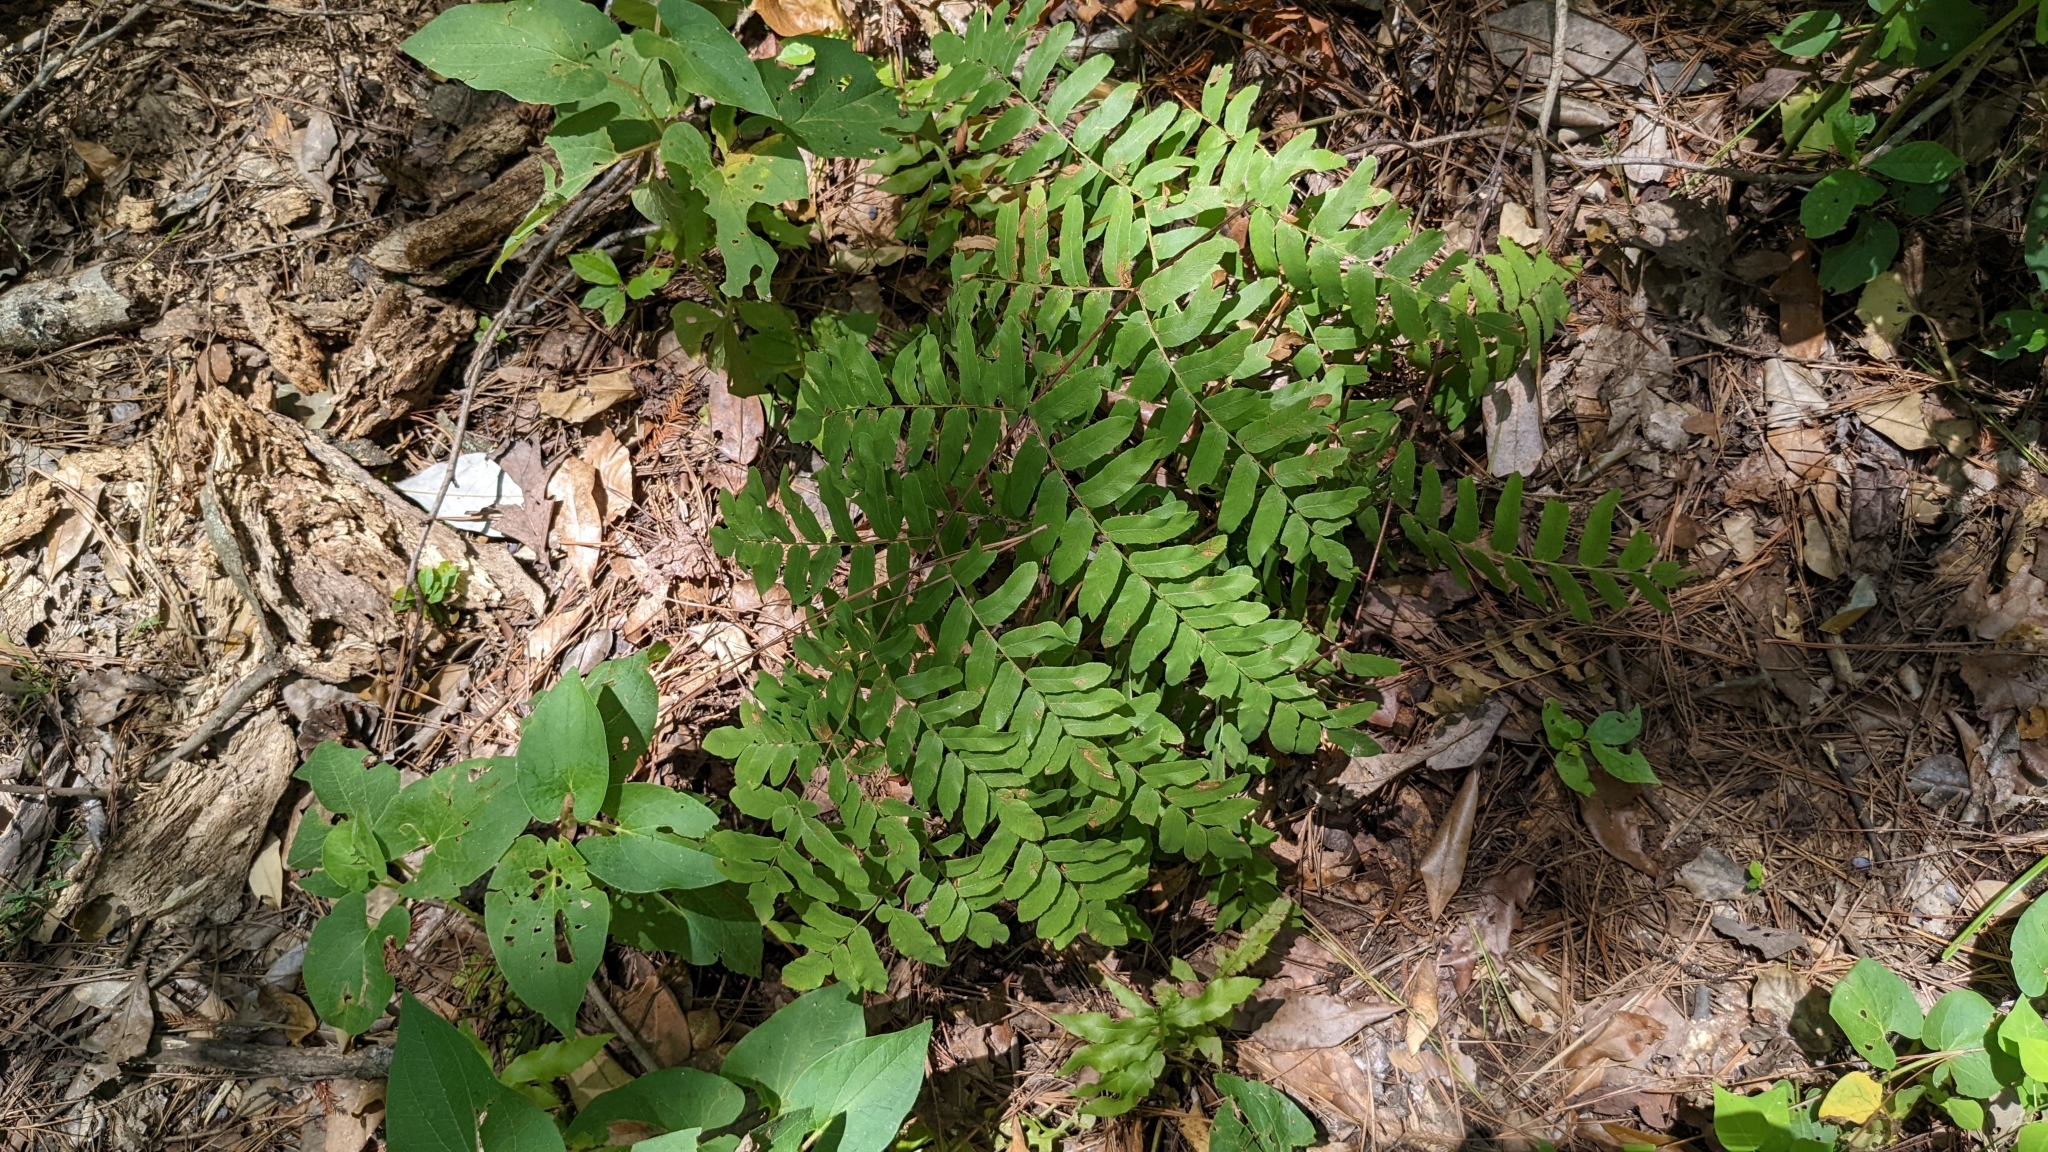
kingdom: Plantae
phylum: Tracheophyta
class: Polypodiopsida
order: Osmundales
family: Osmundaceae
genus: Osmunda
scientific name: Osmunda spectabilis
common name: American royal fern
